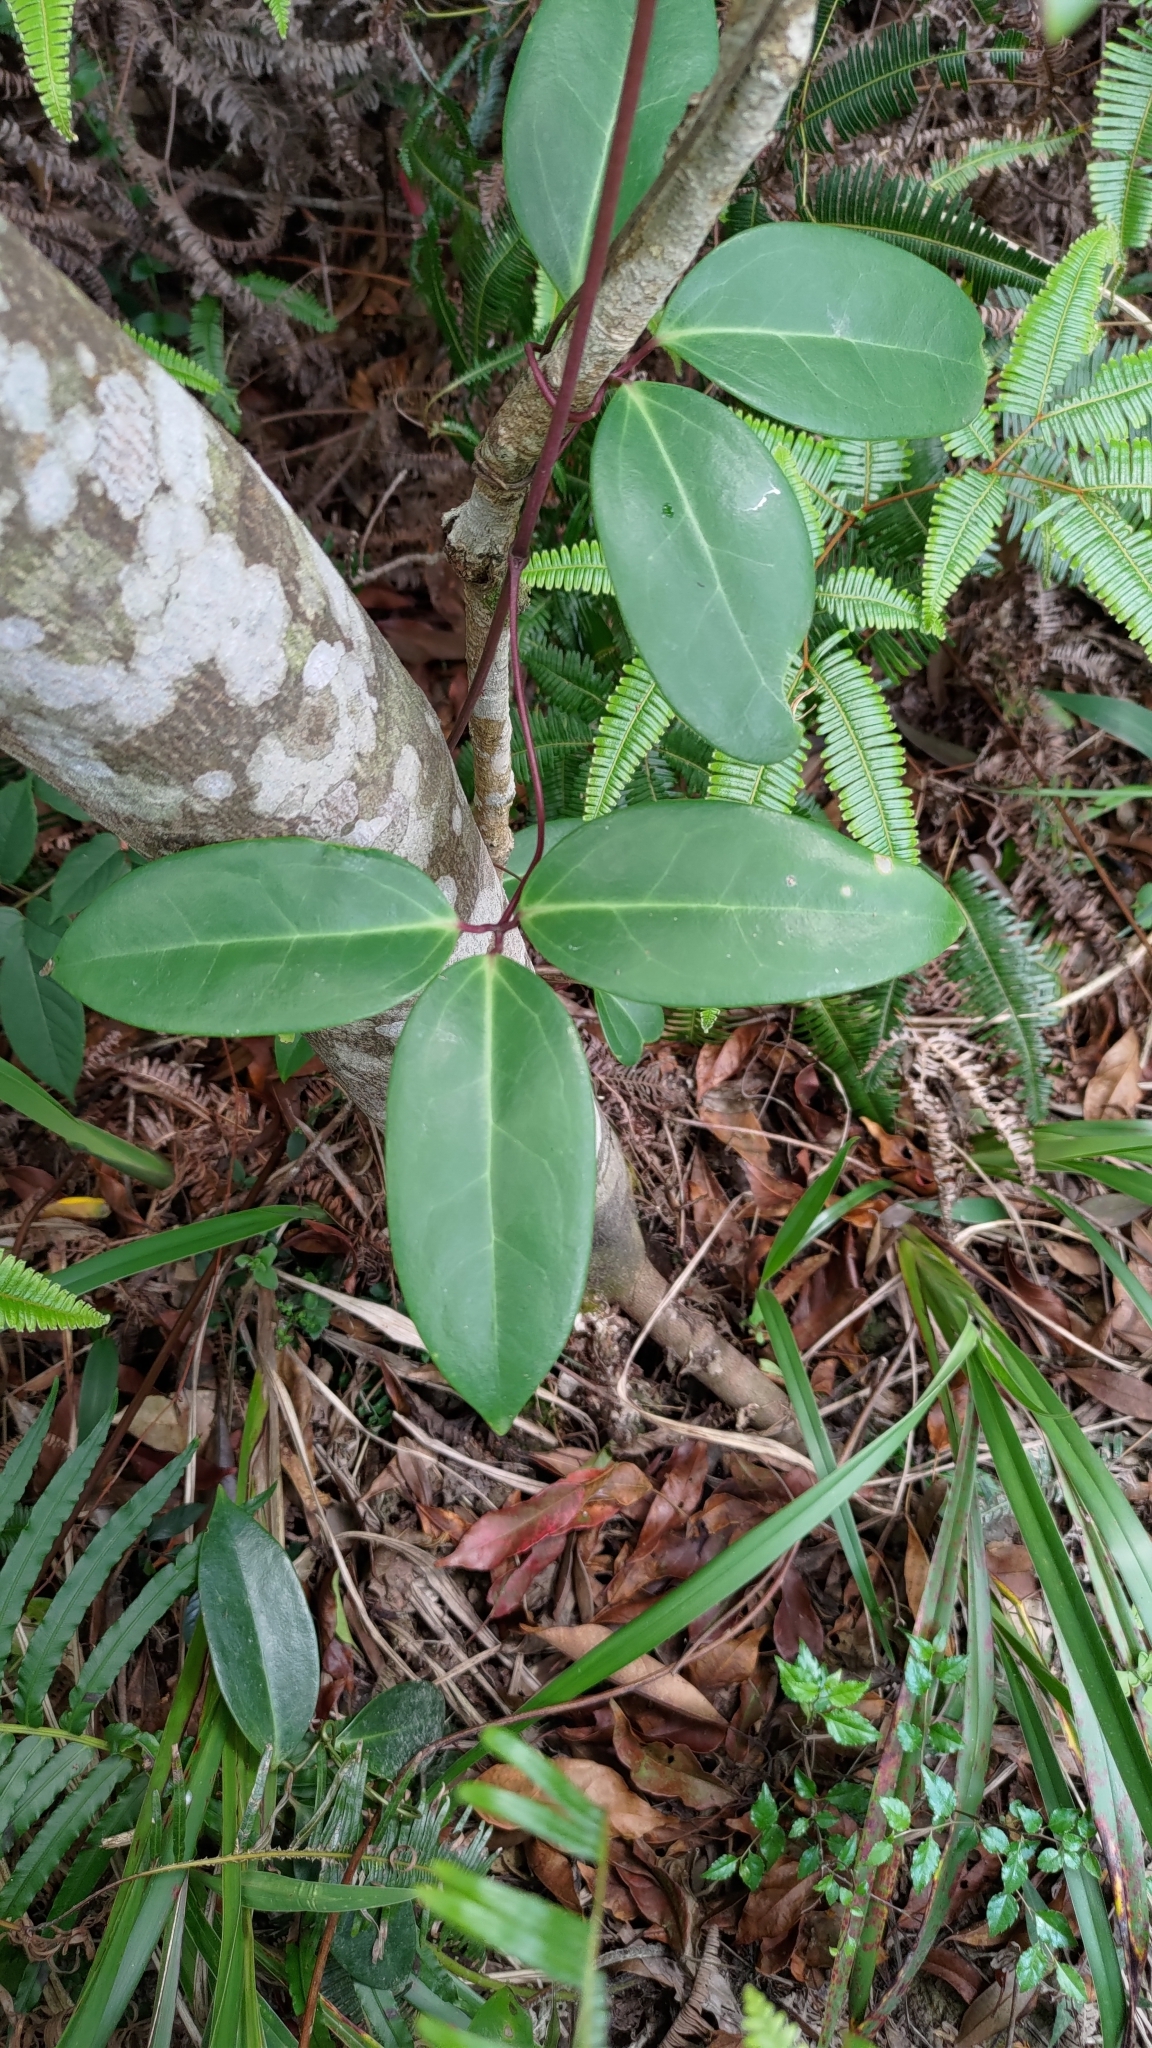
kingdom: Plantae
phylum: Tracheophyta
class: Magnoliopsida
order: Ranunculales
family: Ranunculaceae
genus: Clematis
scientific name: Clematis crassifolia
